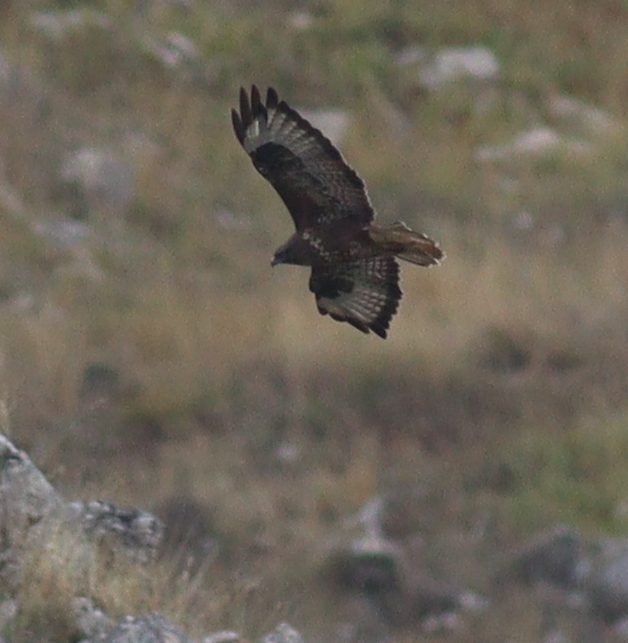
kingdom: Animalia
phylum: Chordata
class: Aves
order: Accipitriformes
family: Accipitridae
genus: Buteo
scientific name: Buteo buteo
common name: Common buzzard
